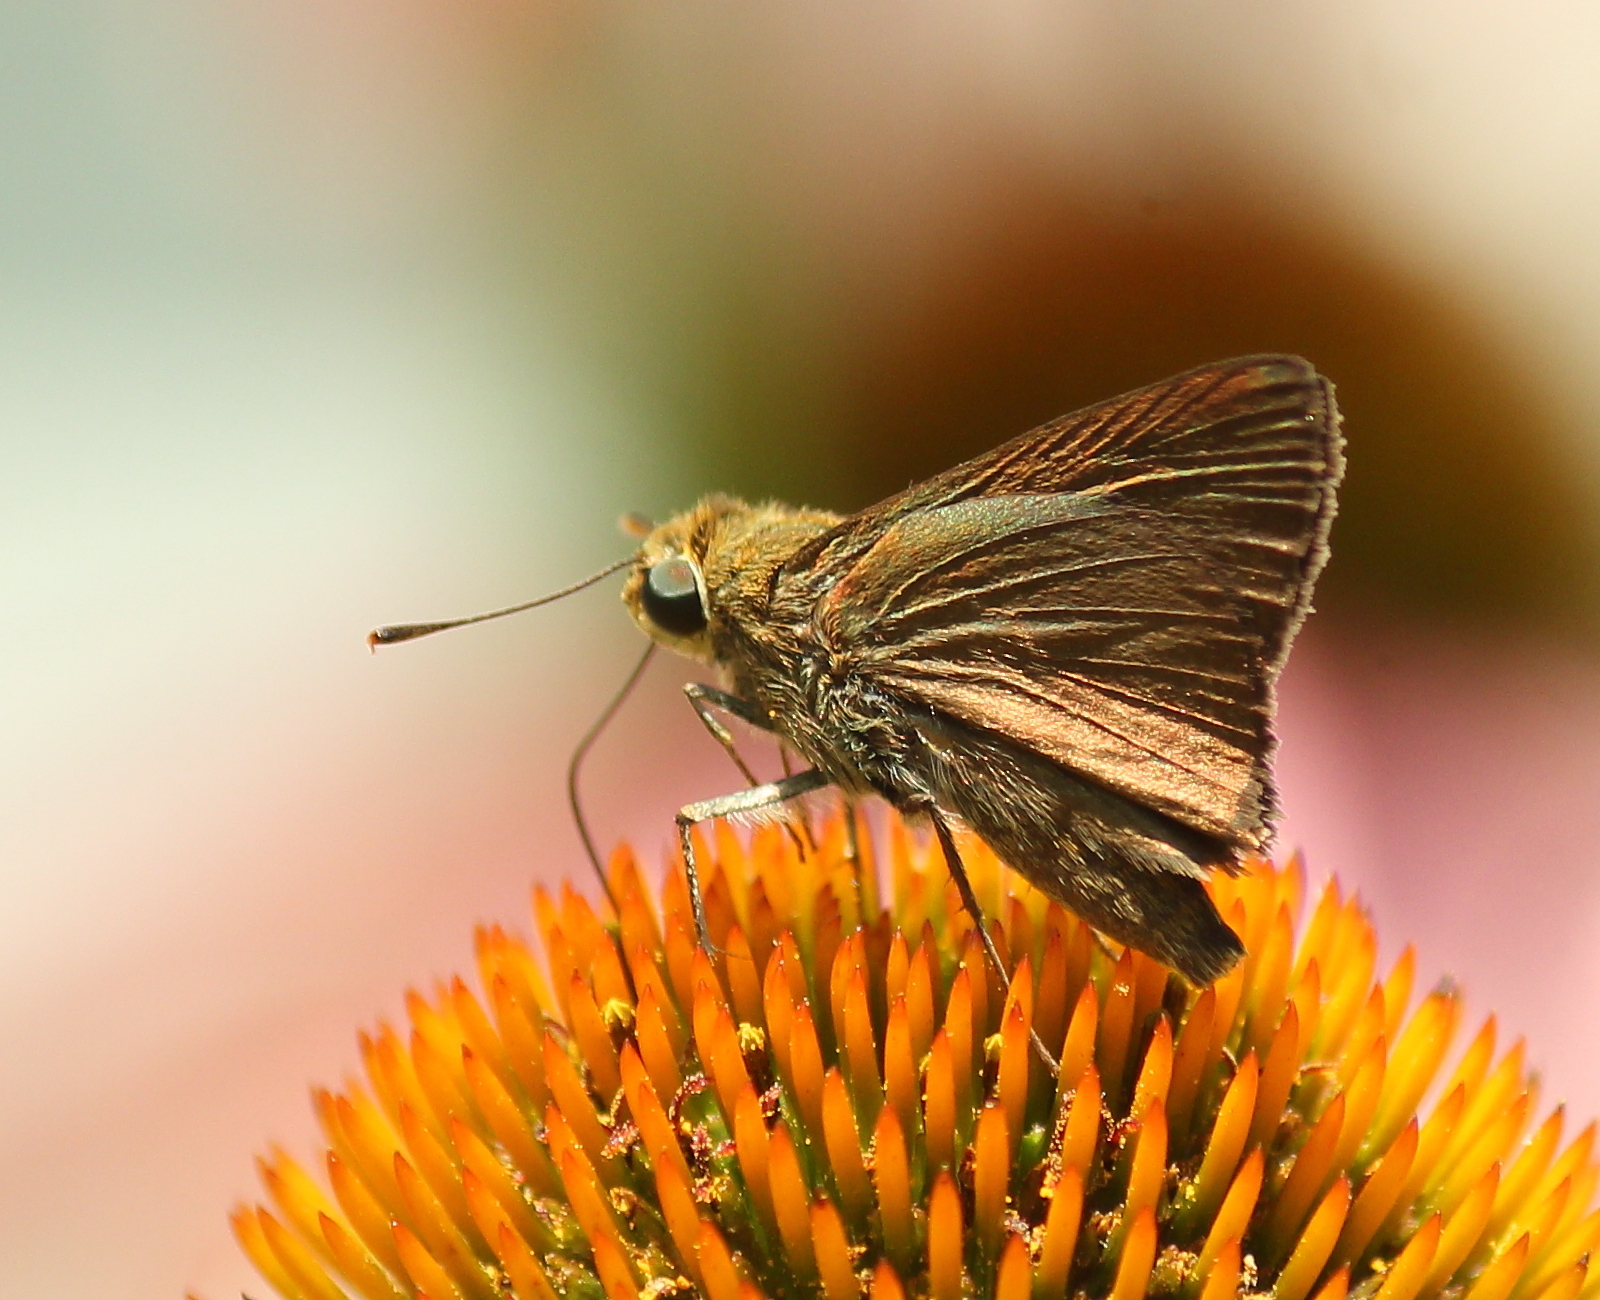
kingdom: Animalia
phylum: Arthropoda
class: Insecta
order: Lepidoptera
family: Hesperiidae
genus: Euphyes
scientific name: Euphyes vestris
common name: Dun skipper
